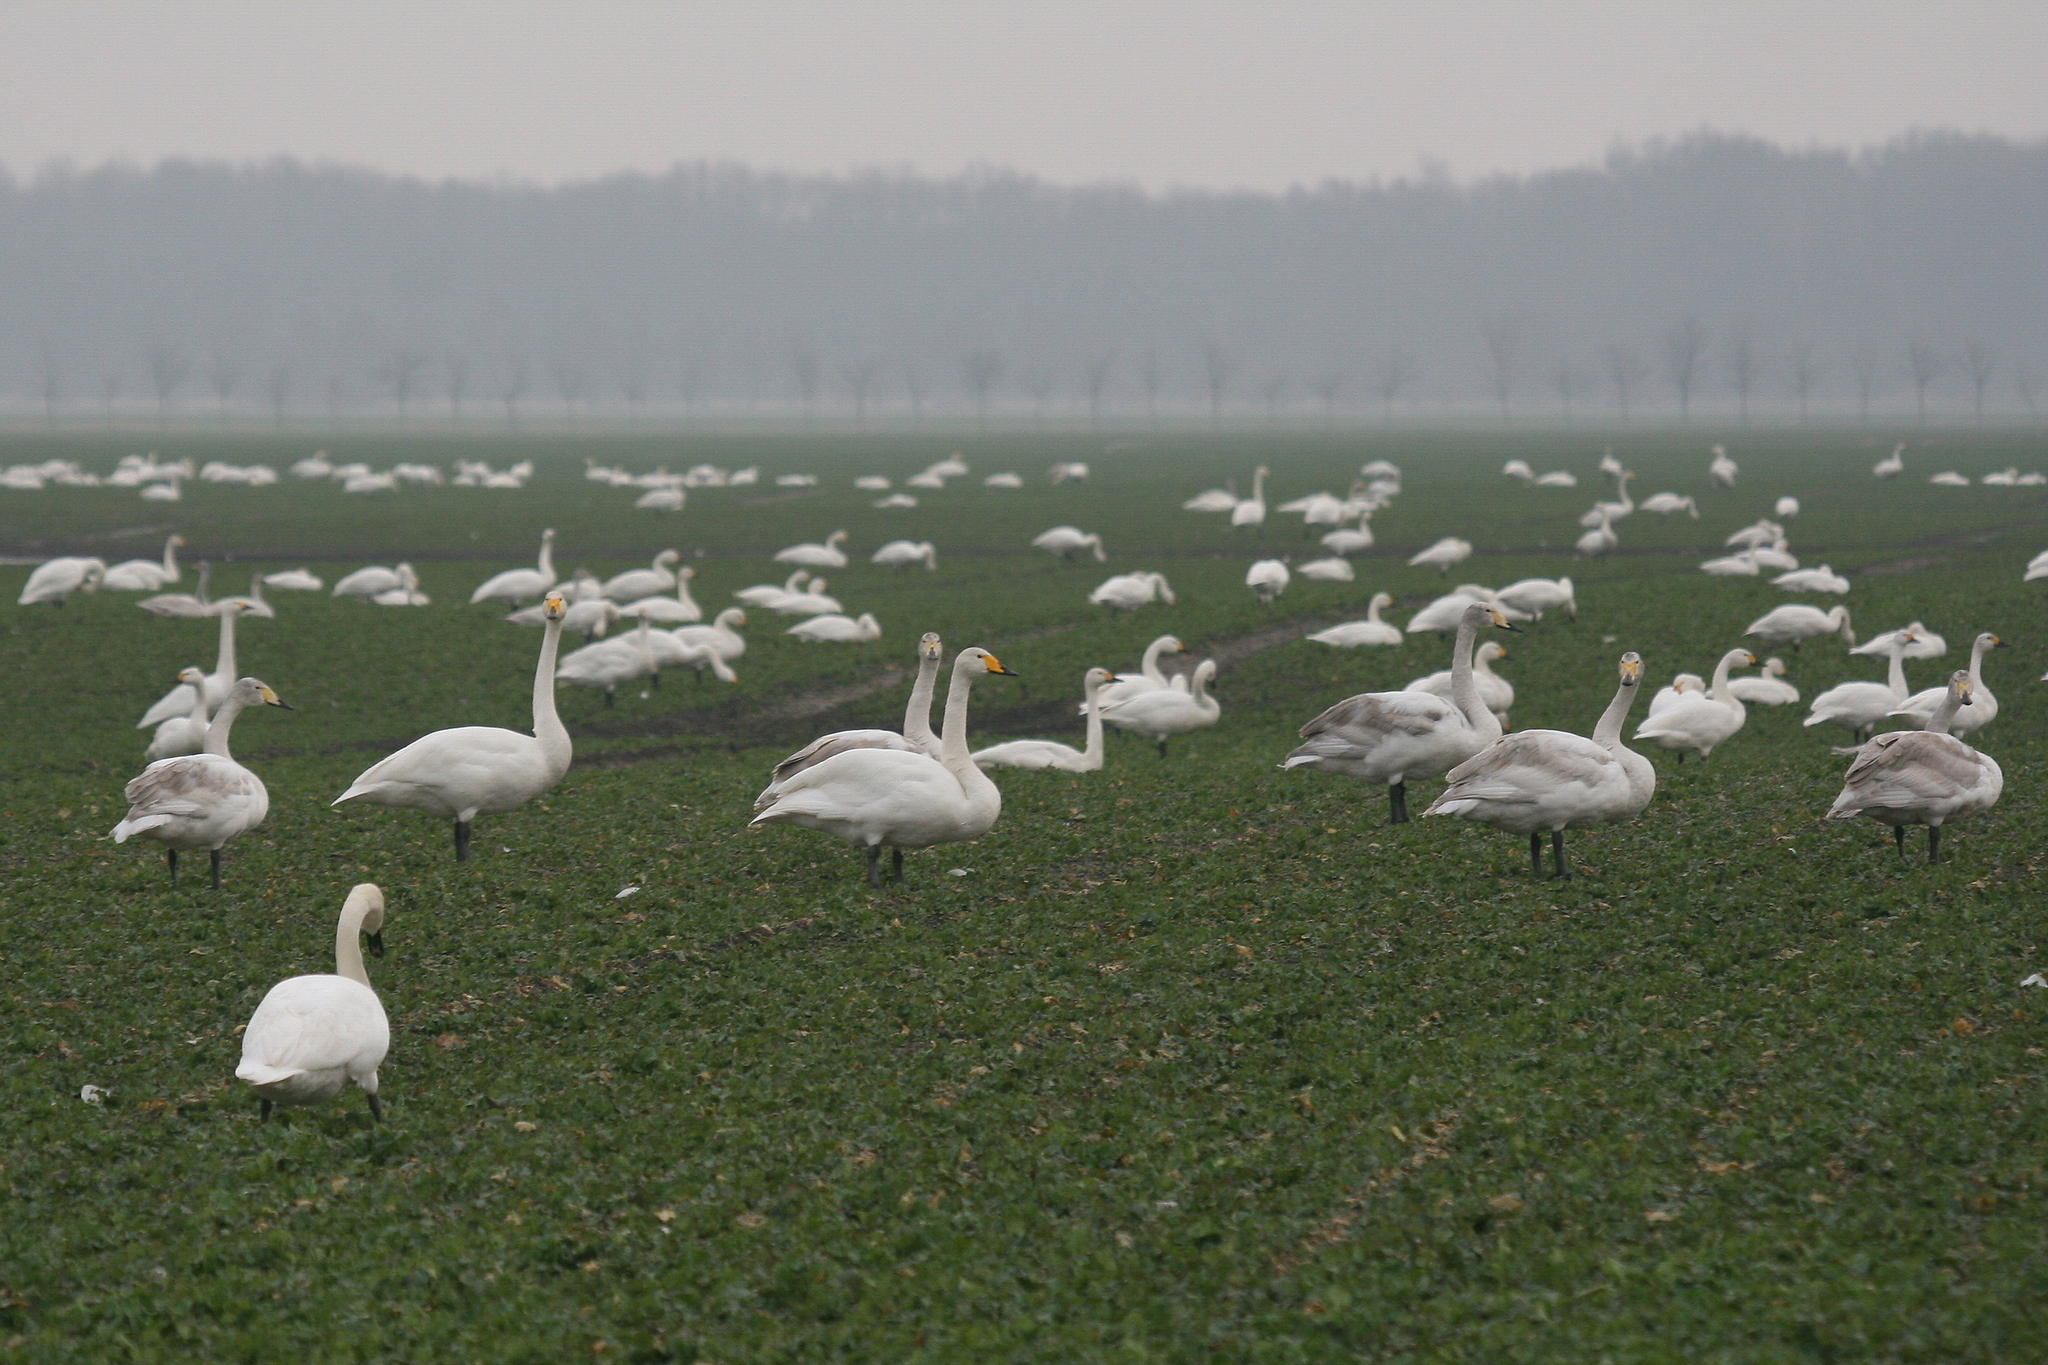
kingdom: Animalia
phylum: Chordata
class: Aves
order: Anseriformes
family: Anatidae
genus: Cygnus
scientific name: Cygnus cygnus
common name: Whooper swan
